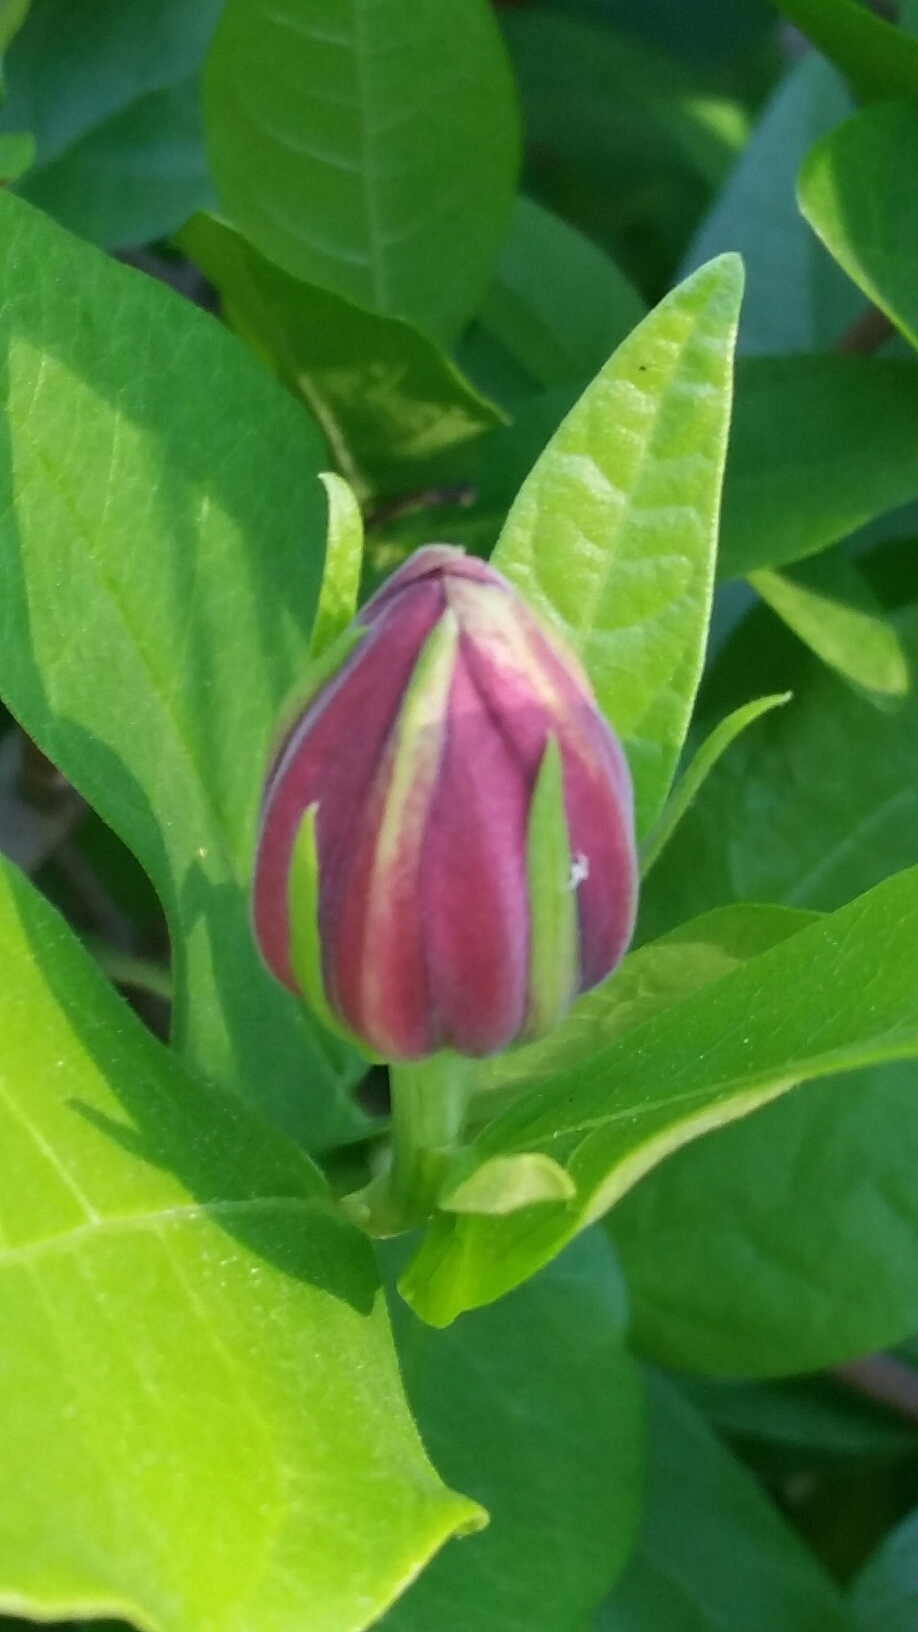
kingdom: Plantae
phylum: Tracheophyta
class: Magnoliopsida
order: Laurales
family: Calycanthaceae
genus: Calycanthus
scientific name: Calycanthus occidentalis
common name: California spicebush
